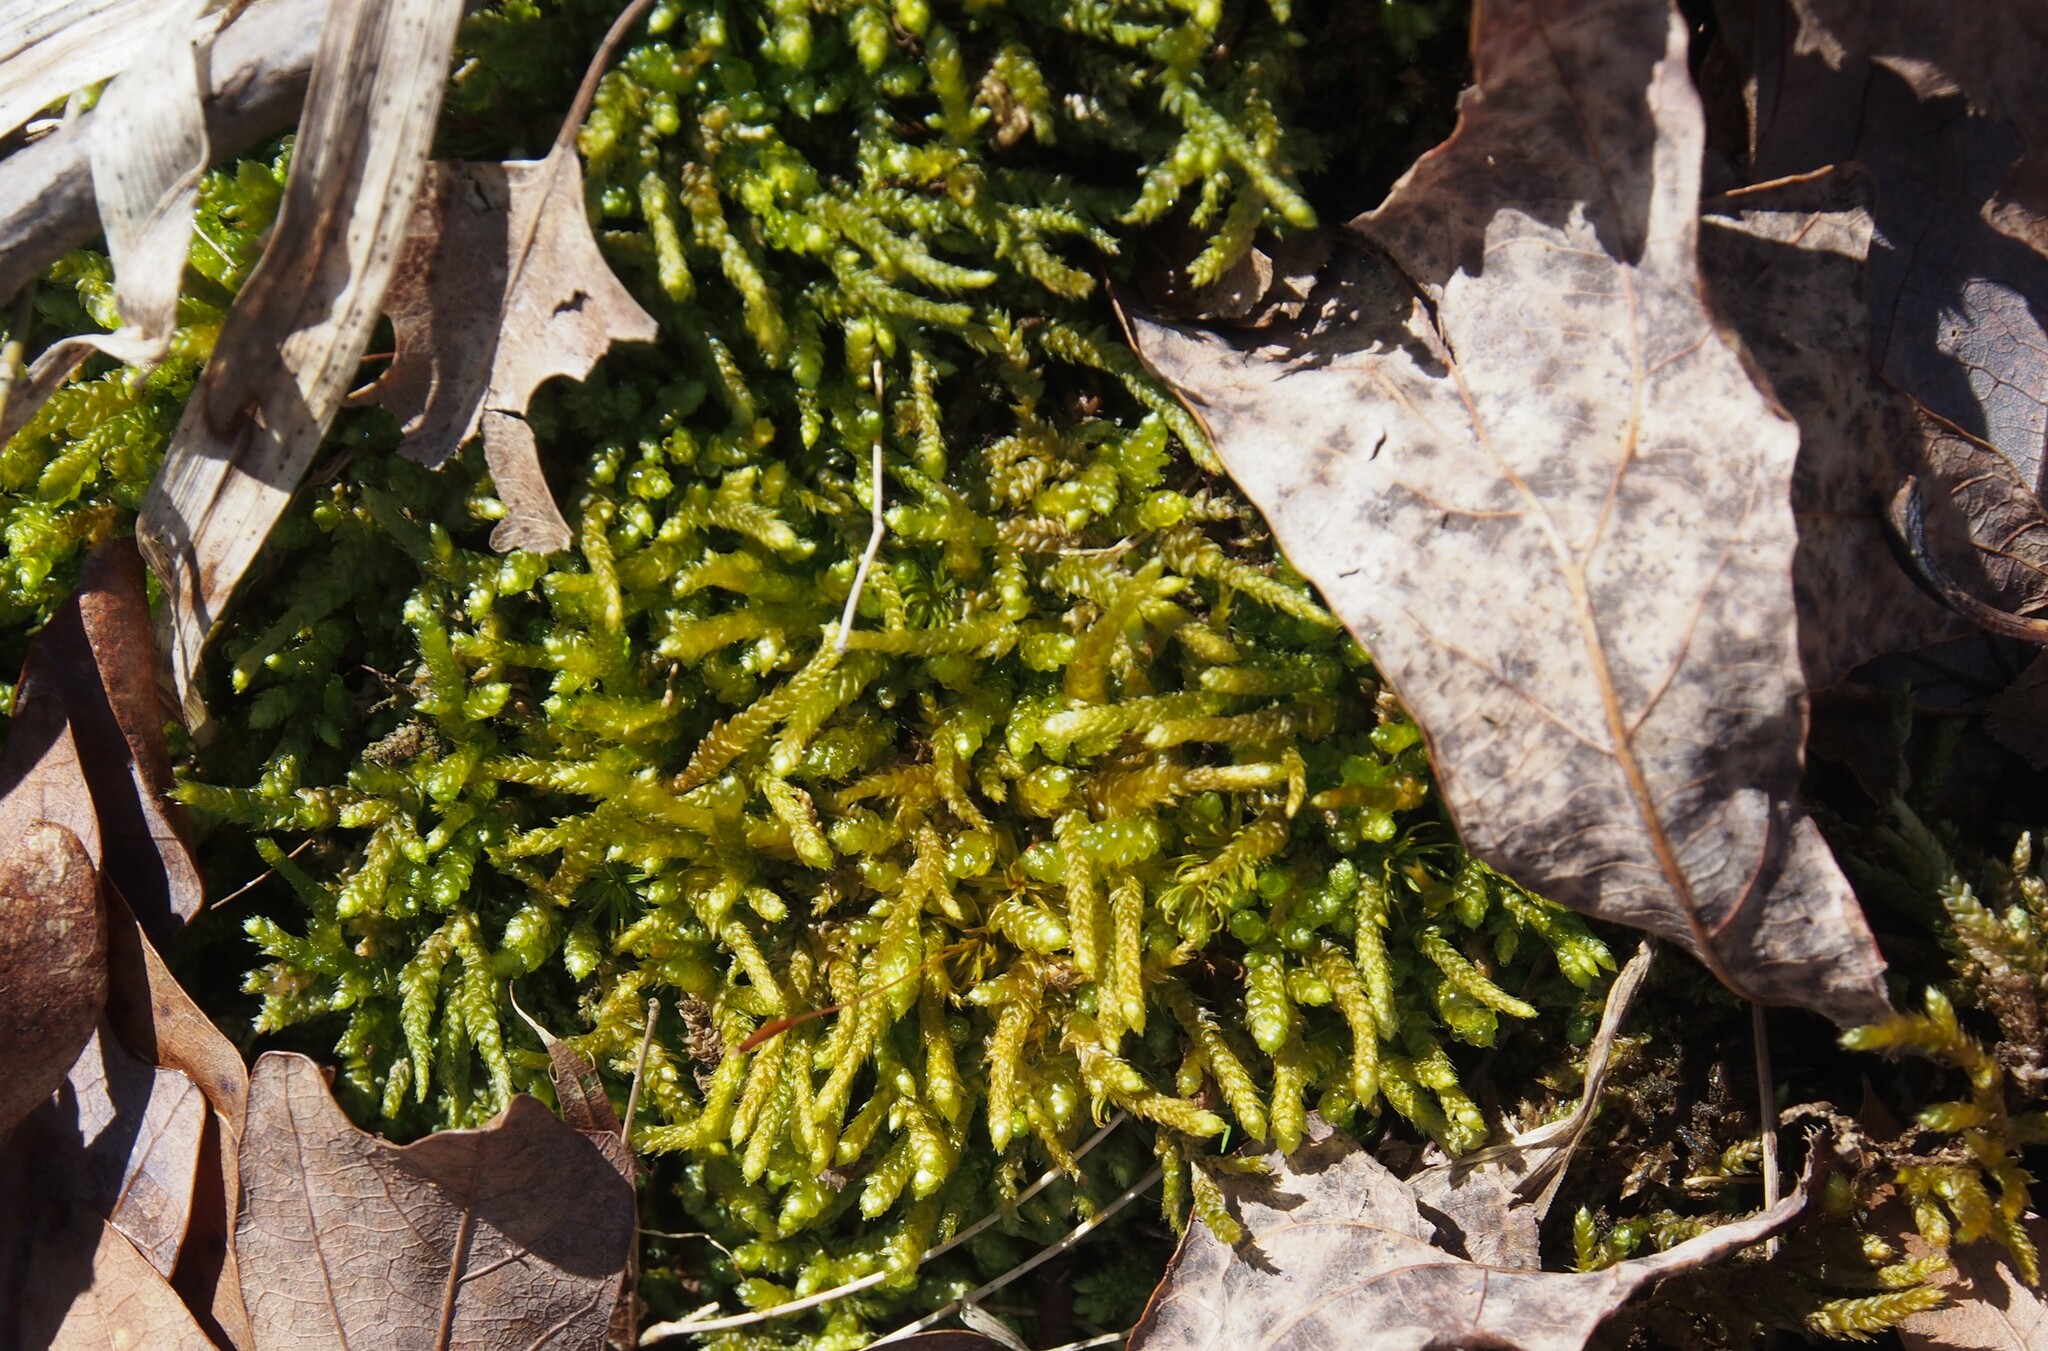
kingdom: Plantae
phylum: Bryophyta
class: Bryopsida
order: Hypnales
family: Brachytheciaceae
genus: Bryoandersonia
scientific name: Bryoandersonia illecebra
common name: Spoon-leaved moss
